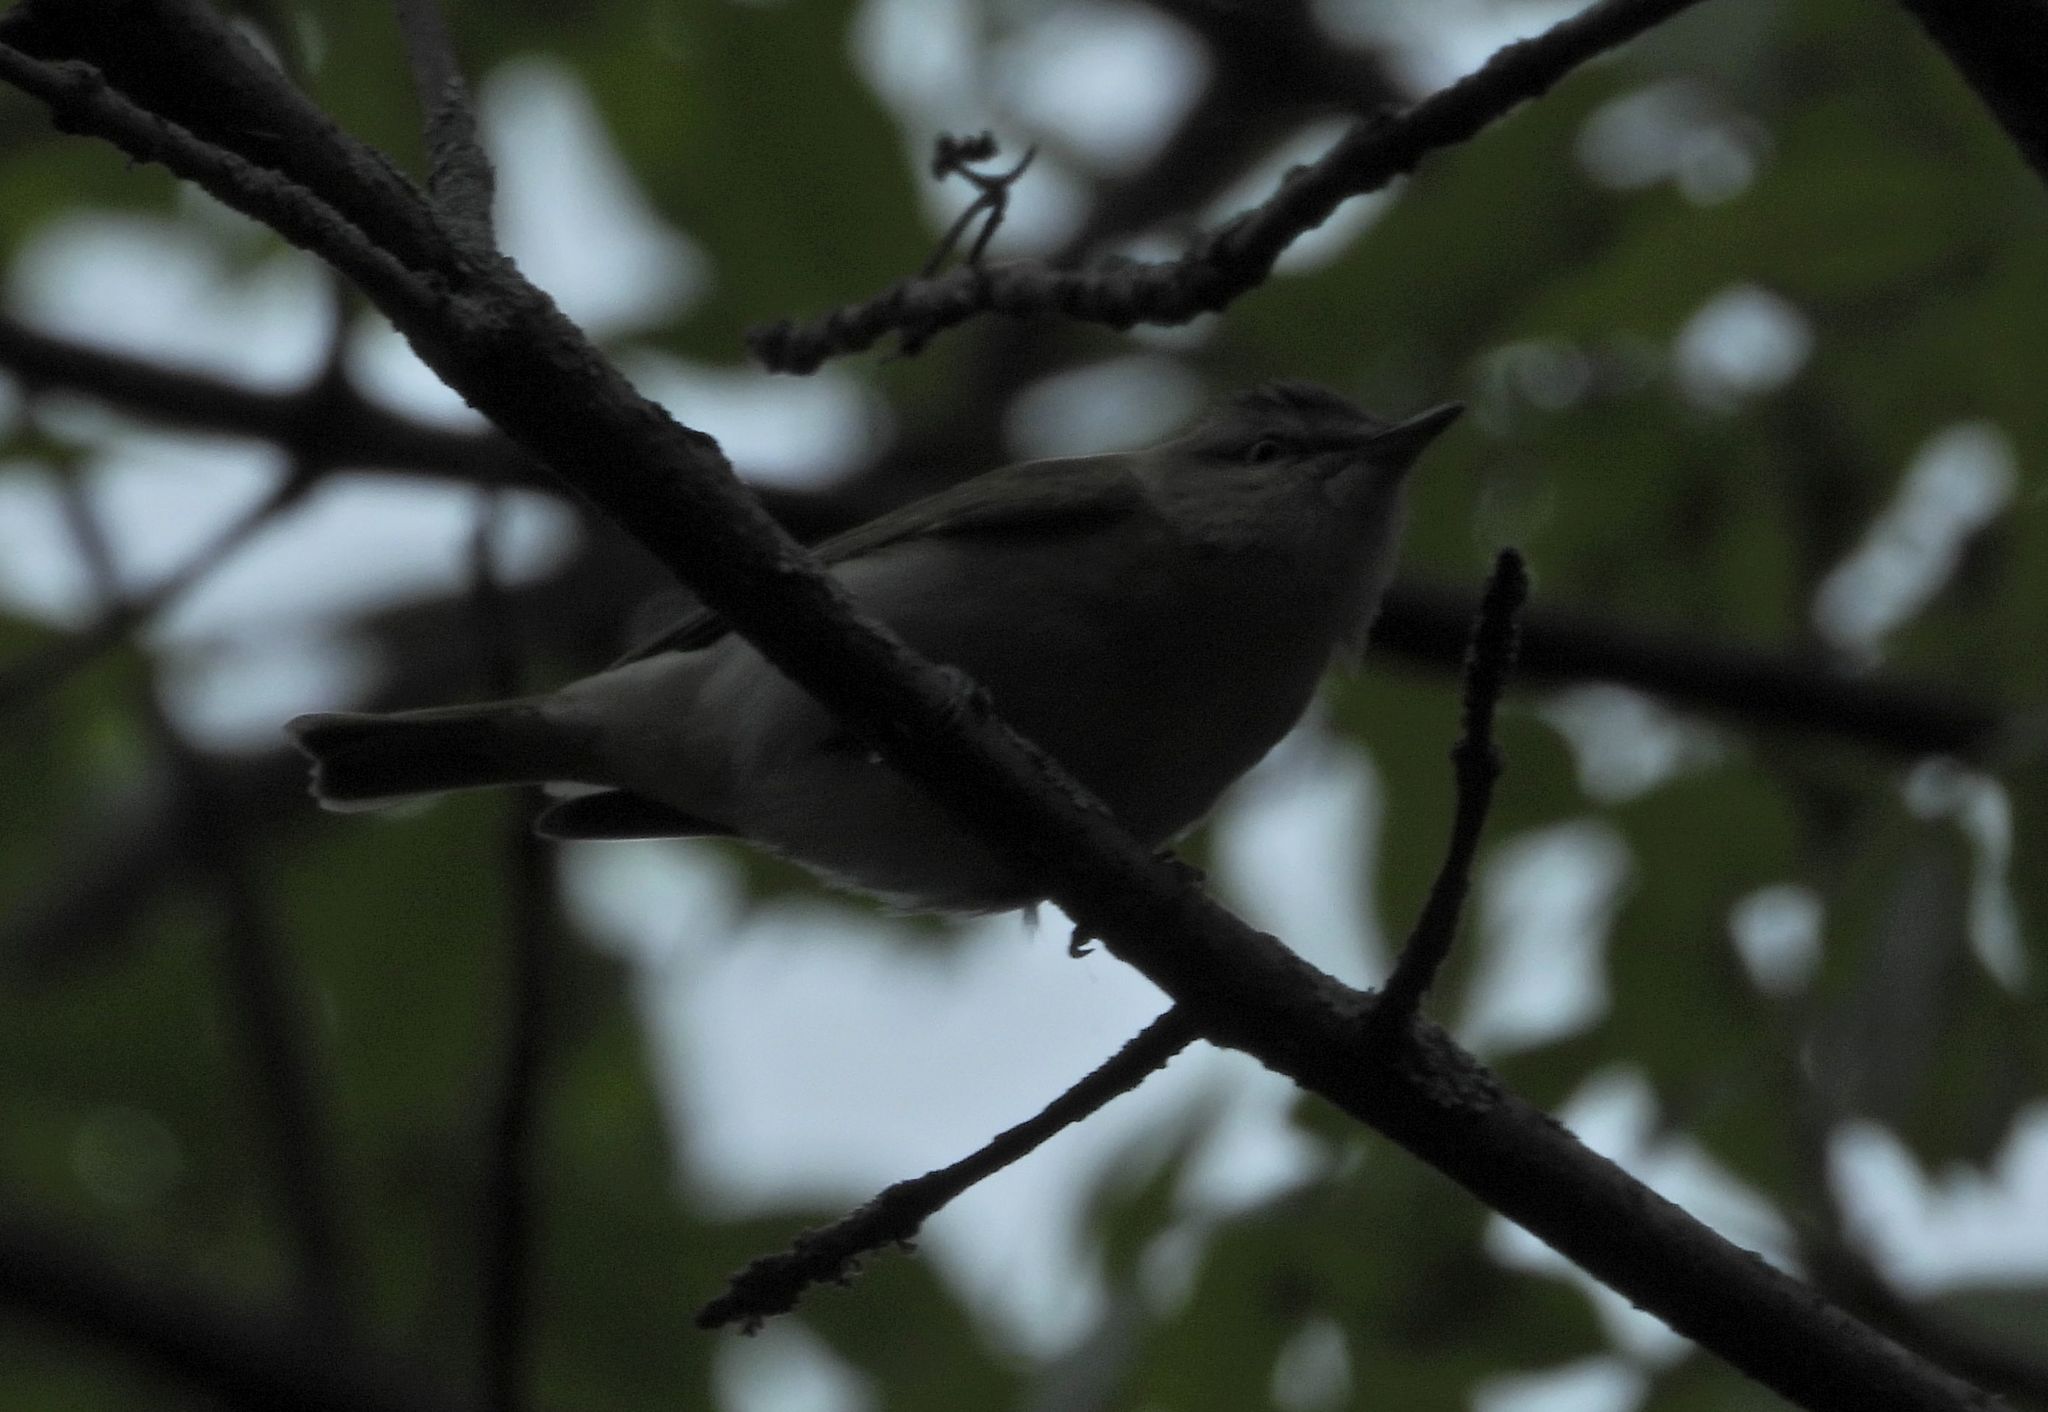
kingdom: Animalia
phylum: Chordata
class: Aves
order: Passeriformes
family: Vireonidae
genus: Vireo
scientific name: Vireo olivaceus
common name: Red-eyed vireo
